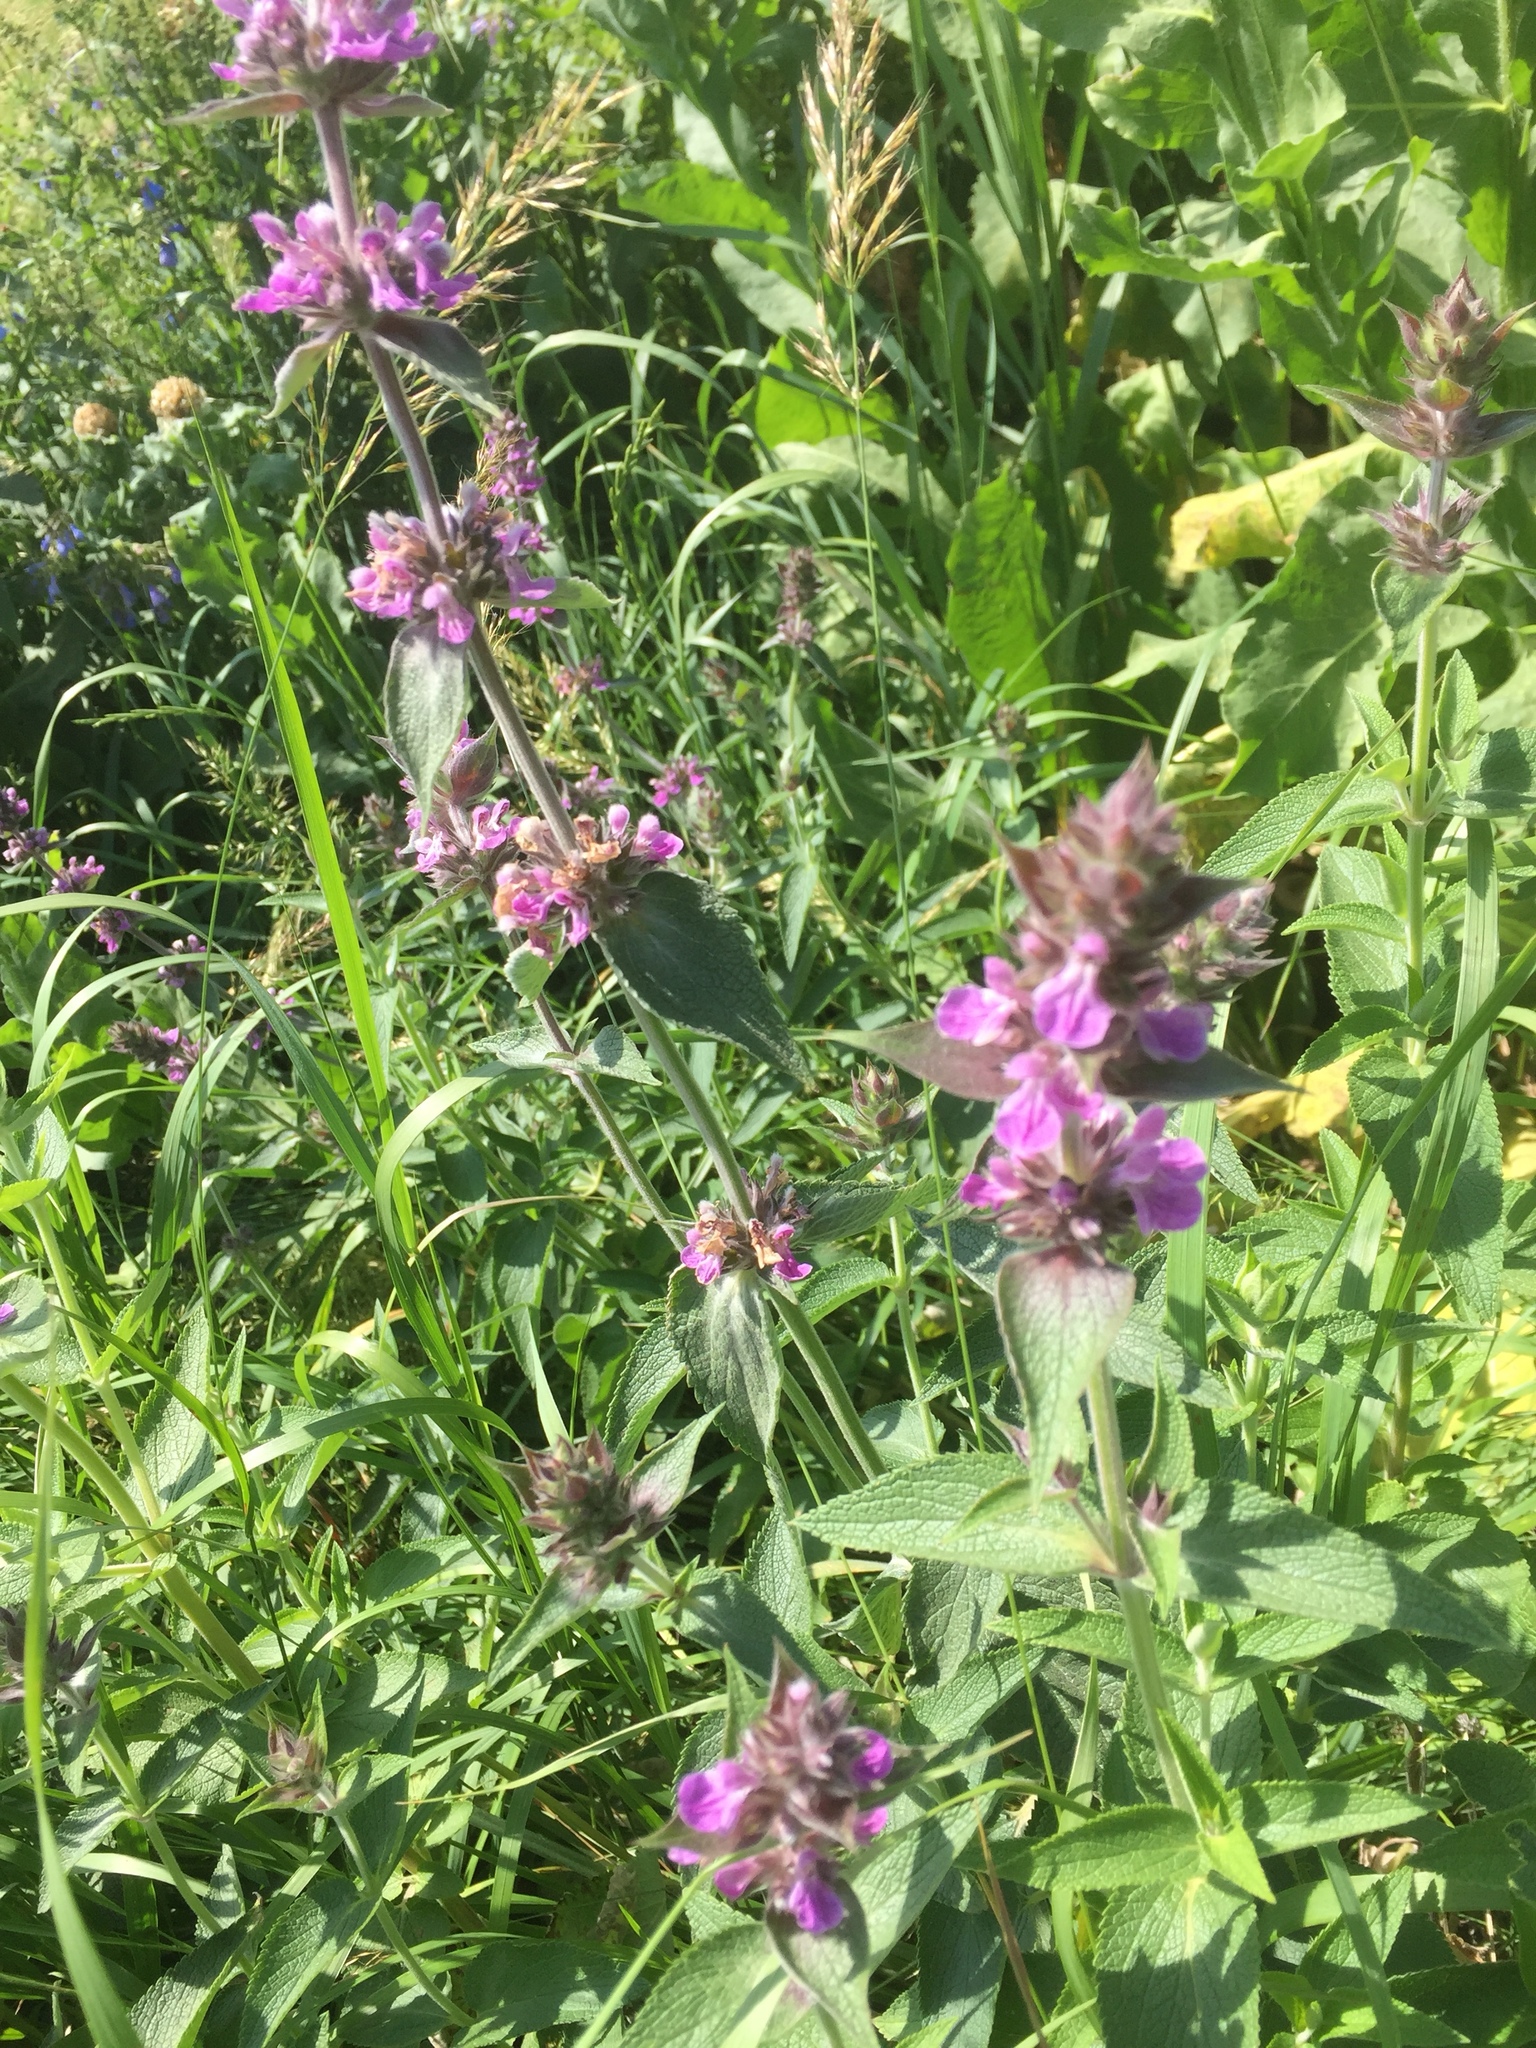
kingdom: Plantae
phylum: Tracheophyta
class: Magnoliopsida
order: Lamiales
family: Lamiaceae
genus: Phlomoides
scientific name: Phlomoides tuberosa
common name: Tuberous jerusalem sage
